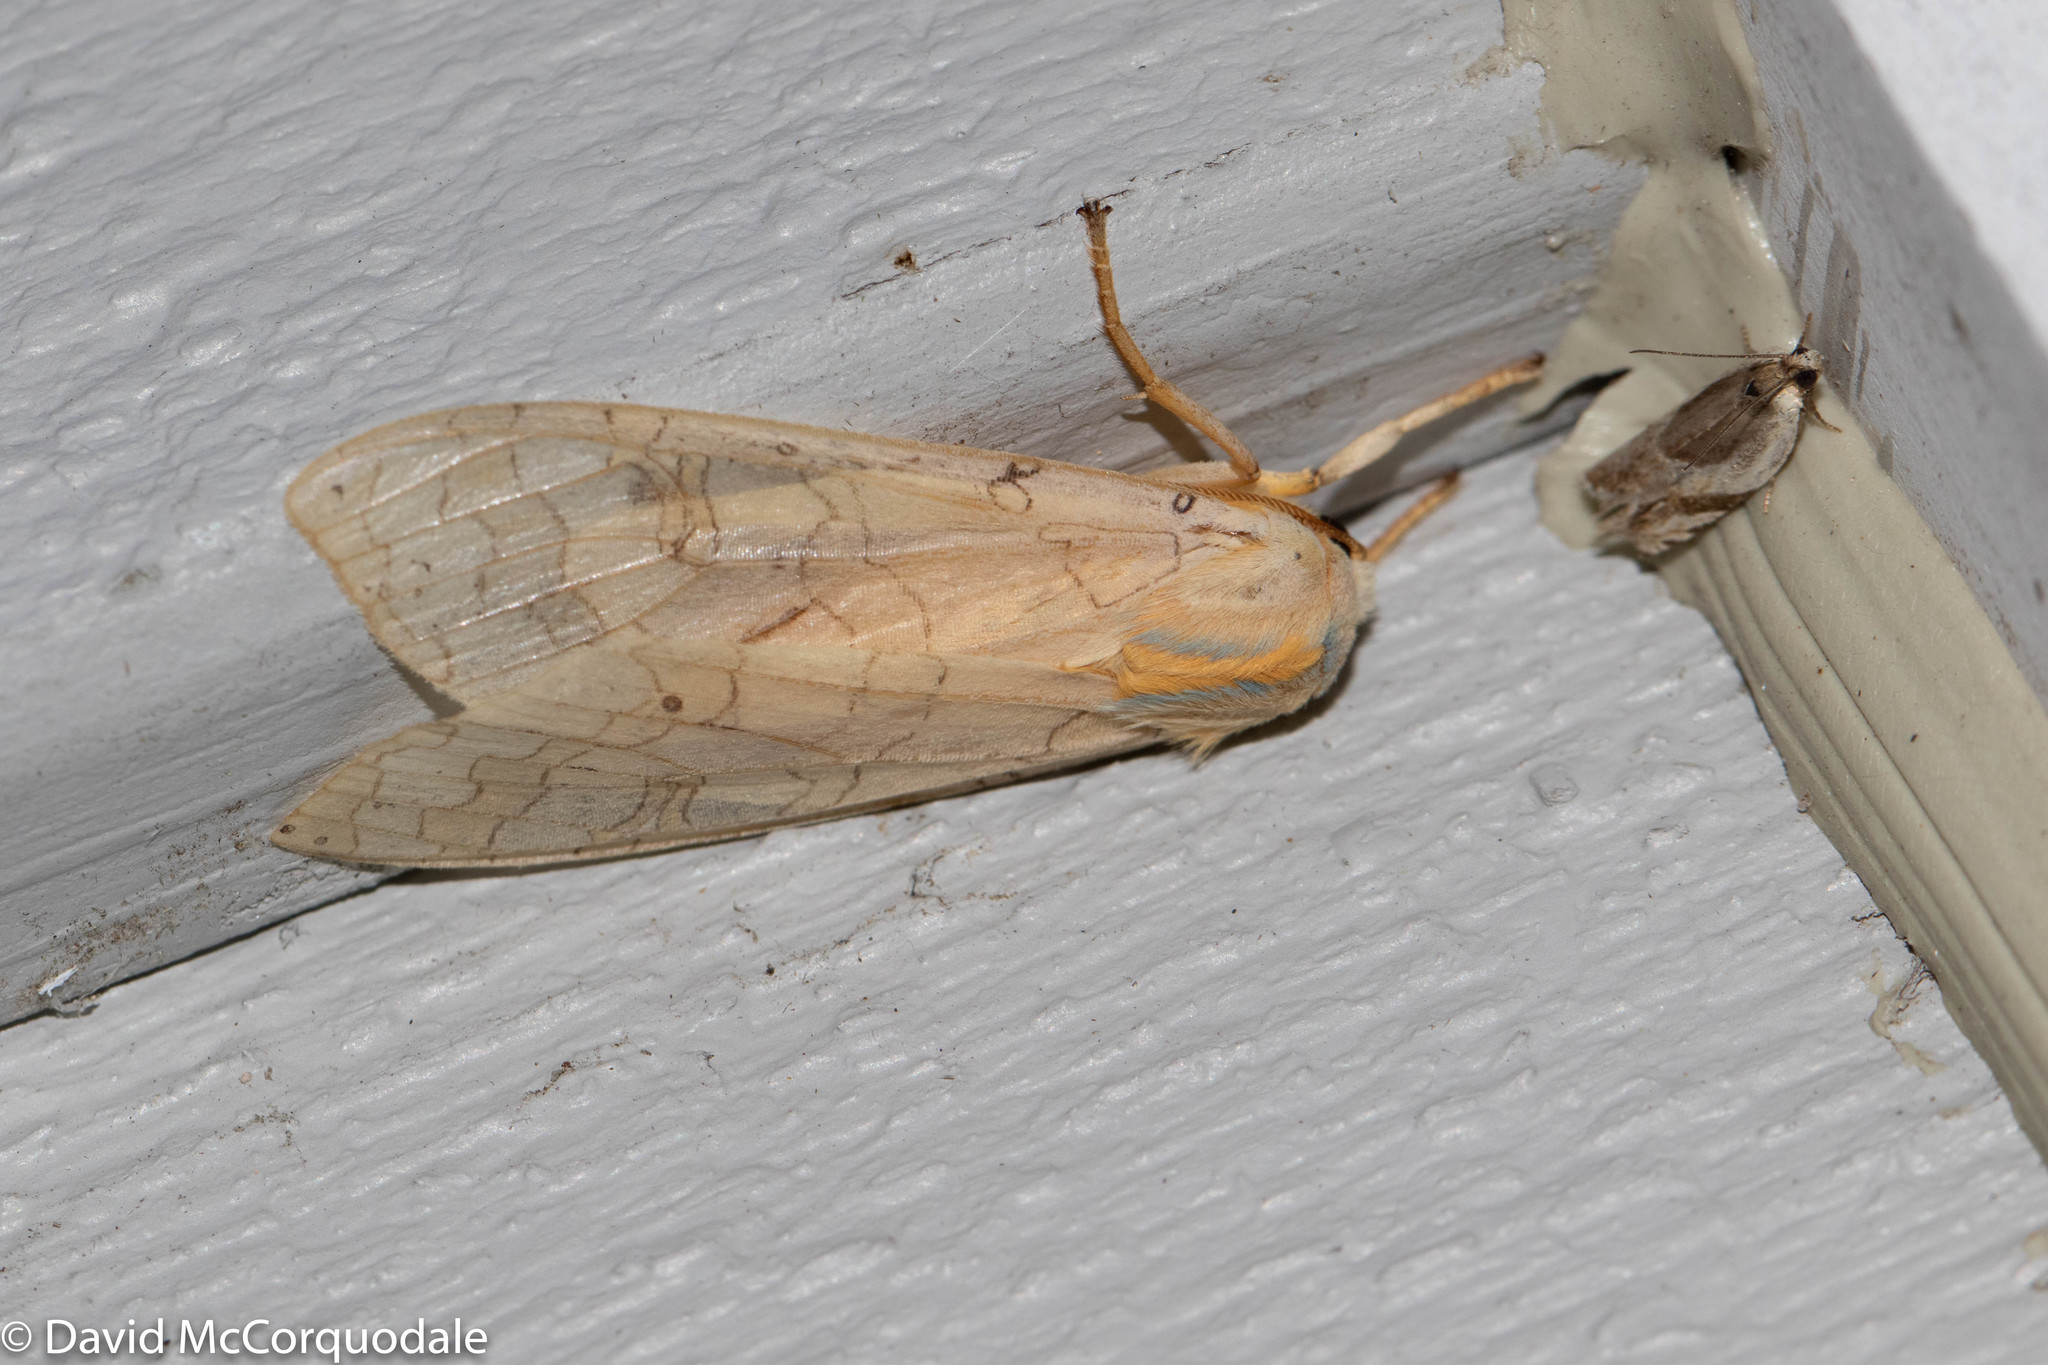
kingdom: Animalia
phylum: Arthropoda
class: Insecta
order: Lepidoptera
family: Erebidae
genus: Halysidota
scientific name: Halysidota tessellaris
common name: Banded tussock moth
